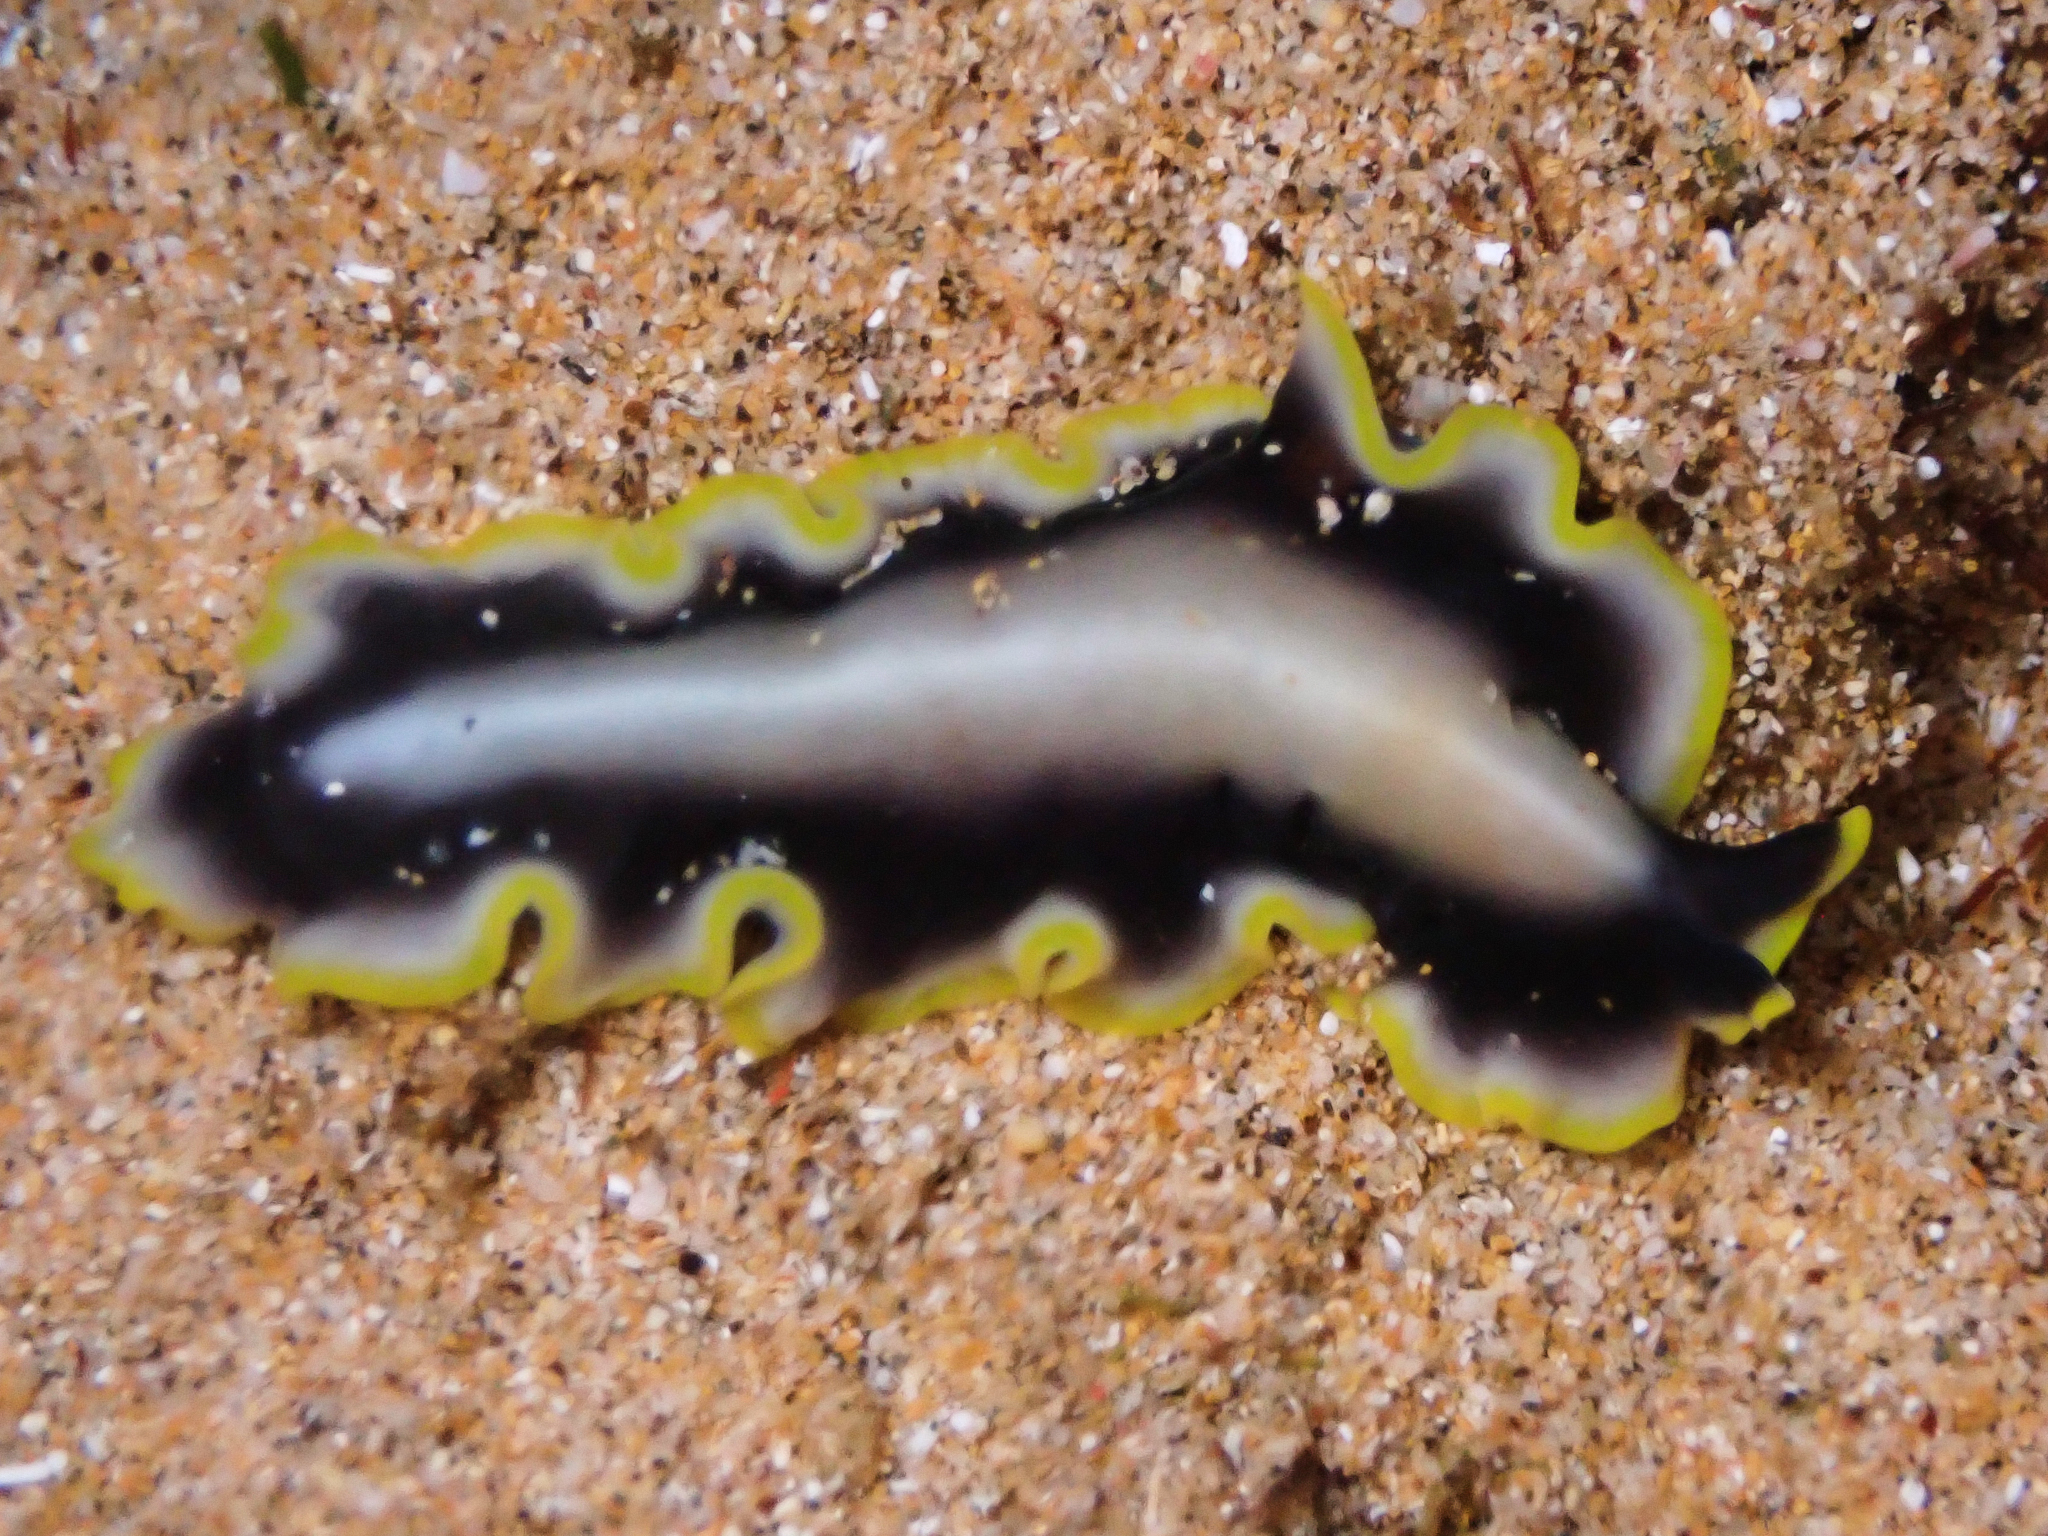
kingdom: Animalia
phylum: Platyhelminthes
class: Turbellaria
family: Pseudocerotidae
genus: Pseudoceros
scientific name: Pseudoceros paralaticlavus
